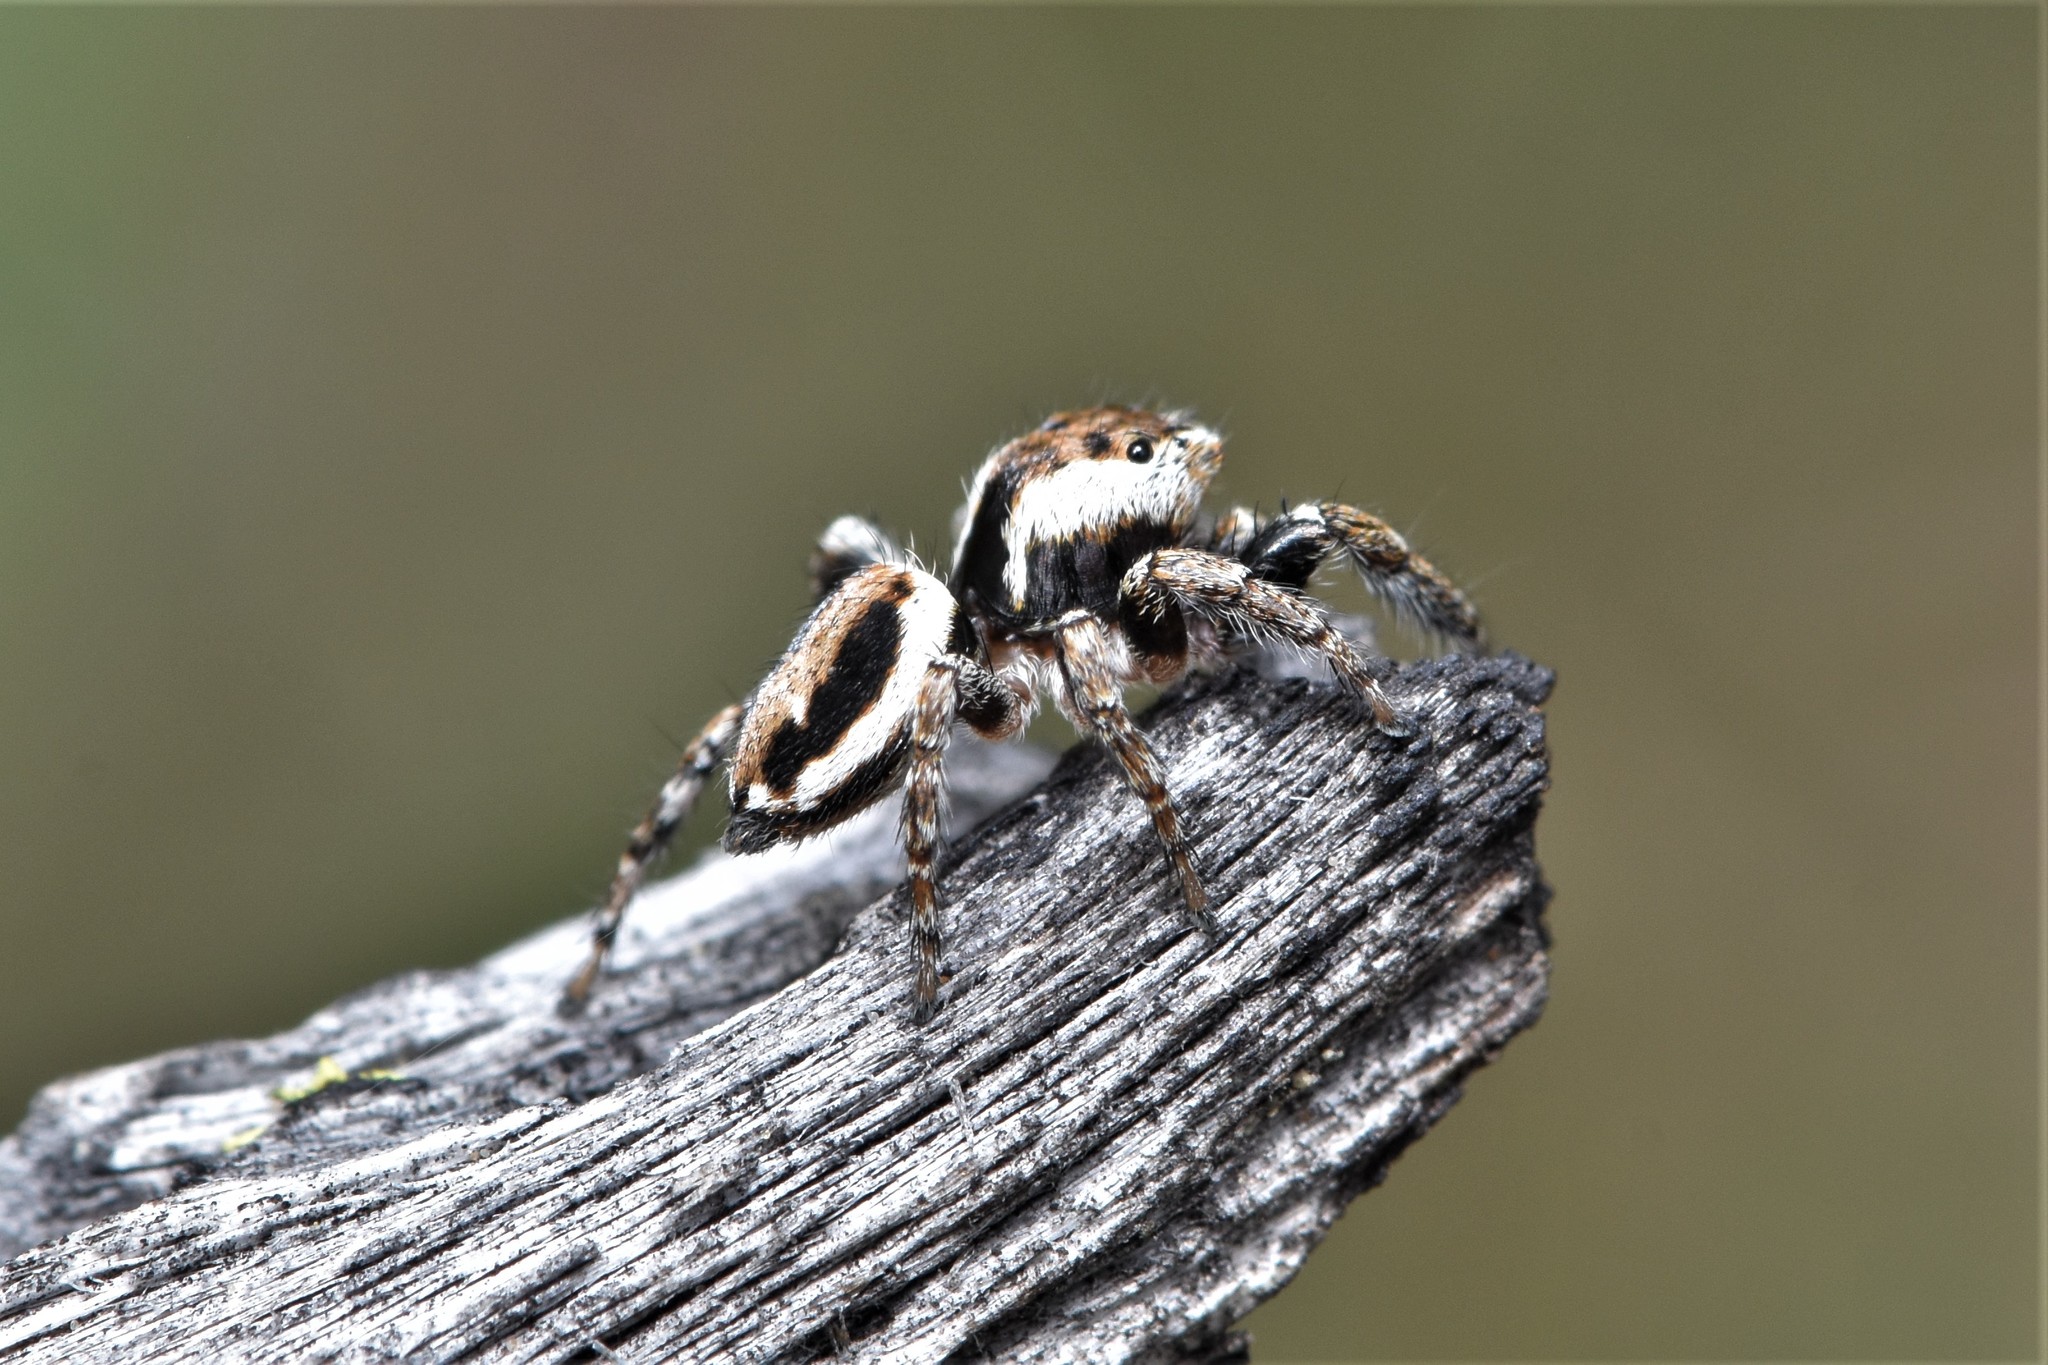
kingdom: Animalia
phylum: Arthropoda
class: Arachnida
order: Araneae
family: Salticidae
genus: Evarcha
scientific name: Evarcha proszynskii
